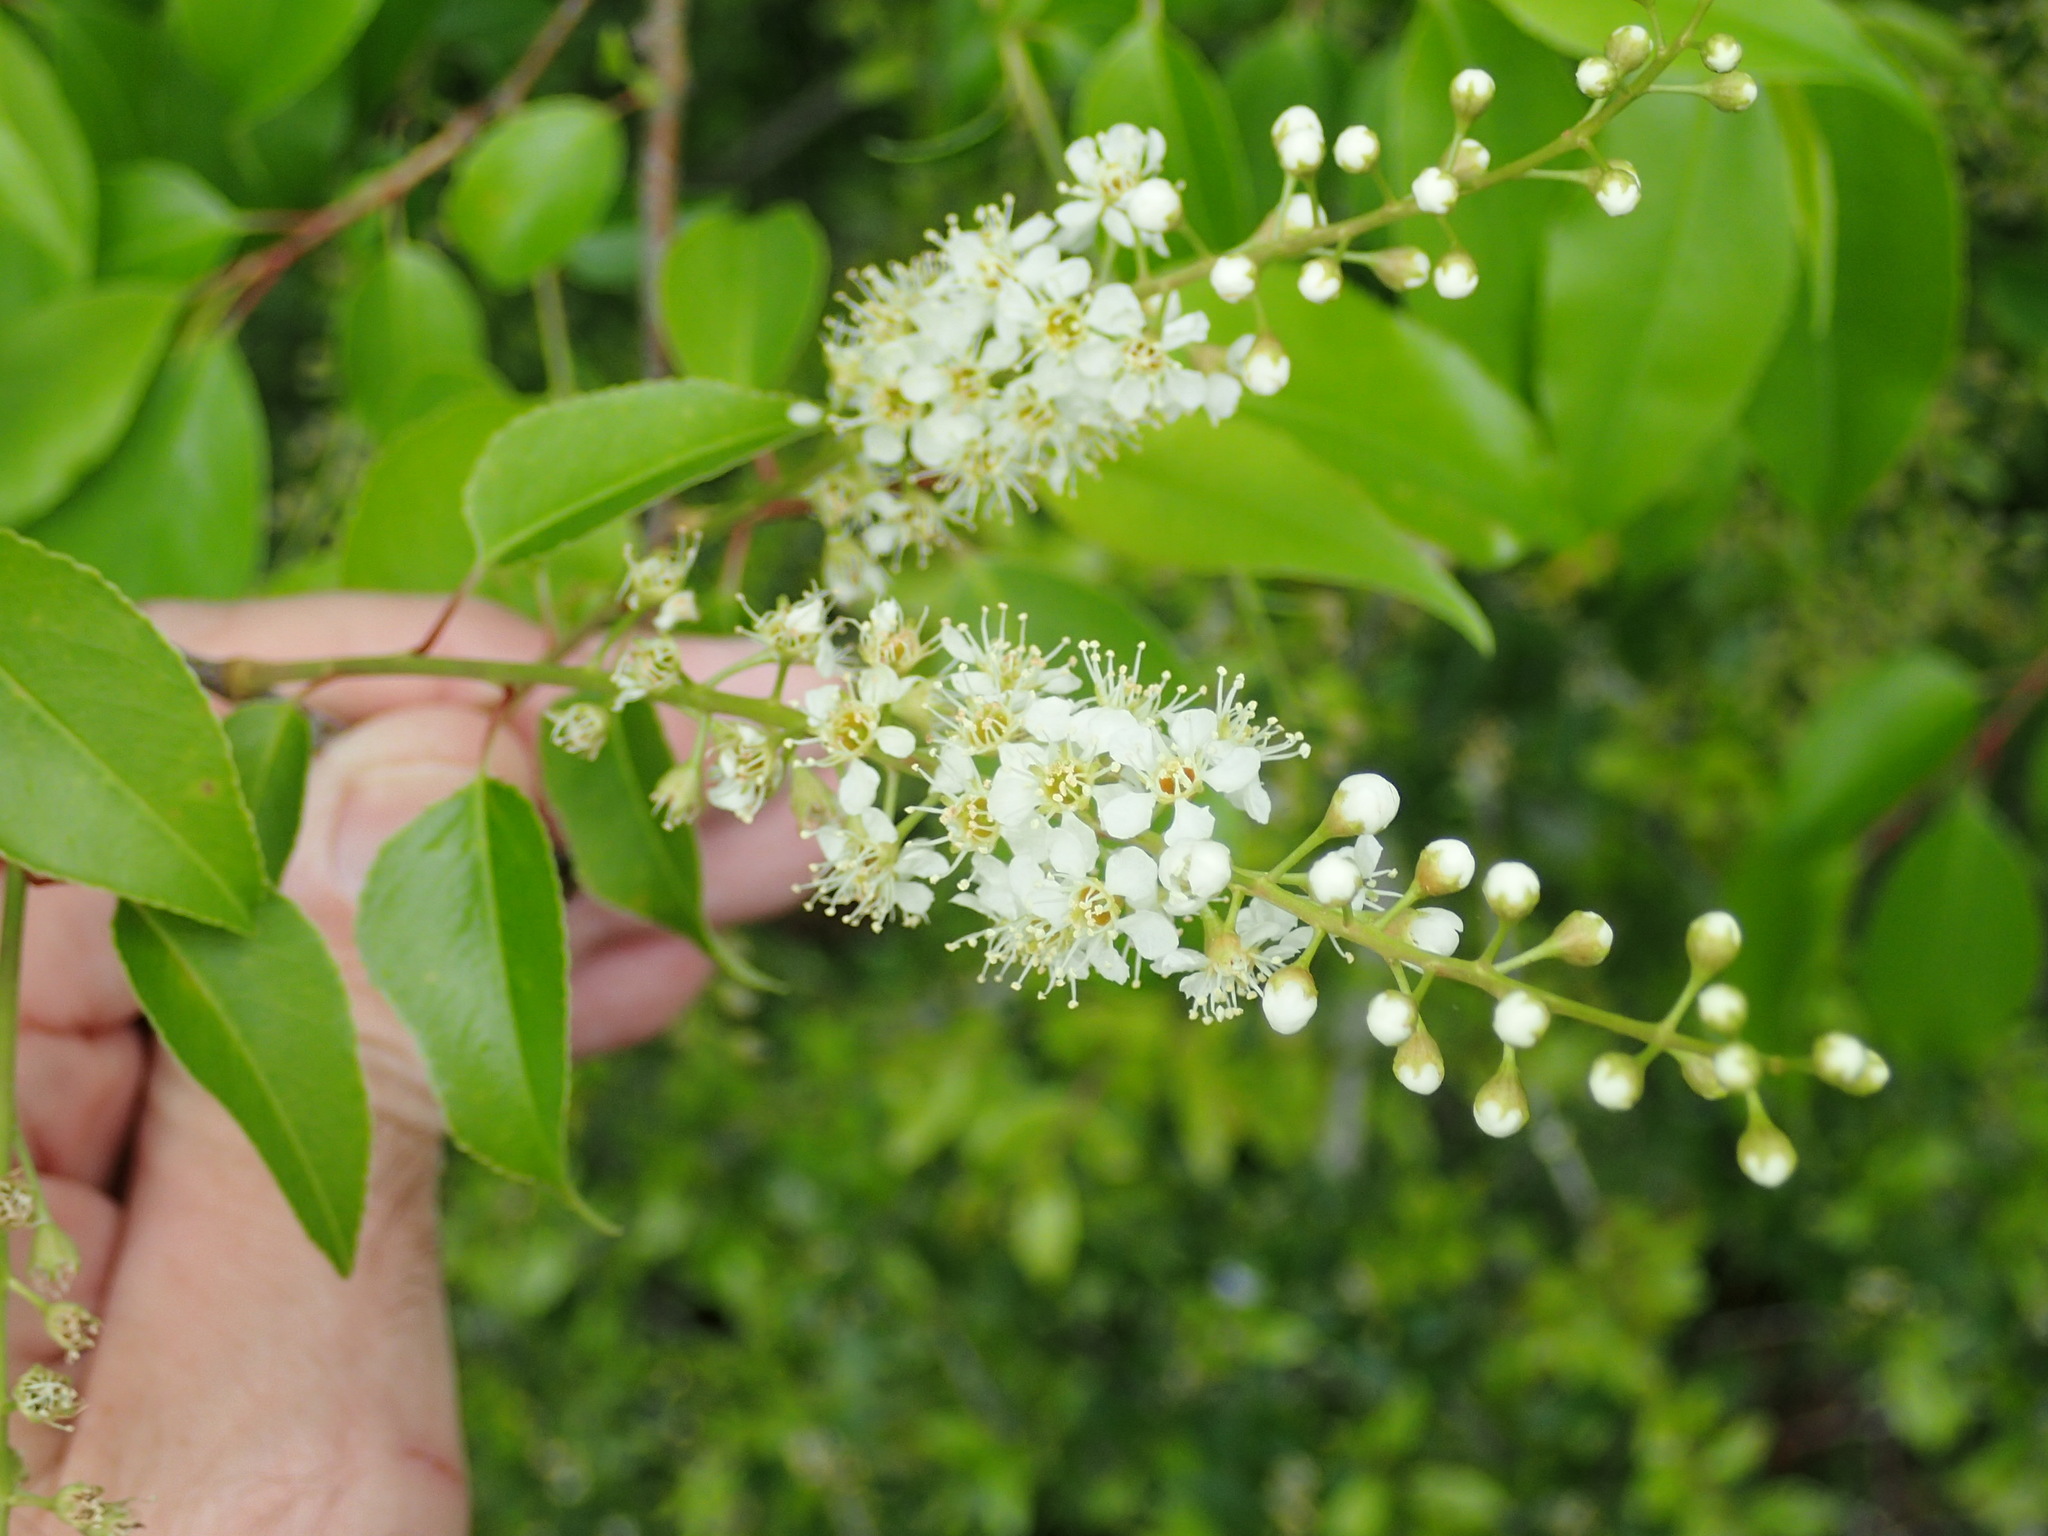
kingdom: Plantae
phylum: Tracheophyta
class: Magnoliopsida
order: Rosales
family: Rosaceae
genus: Prunus
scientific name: Prunus serotina
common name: Black cherry
